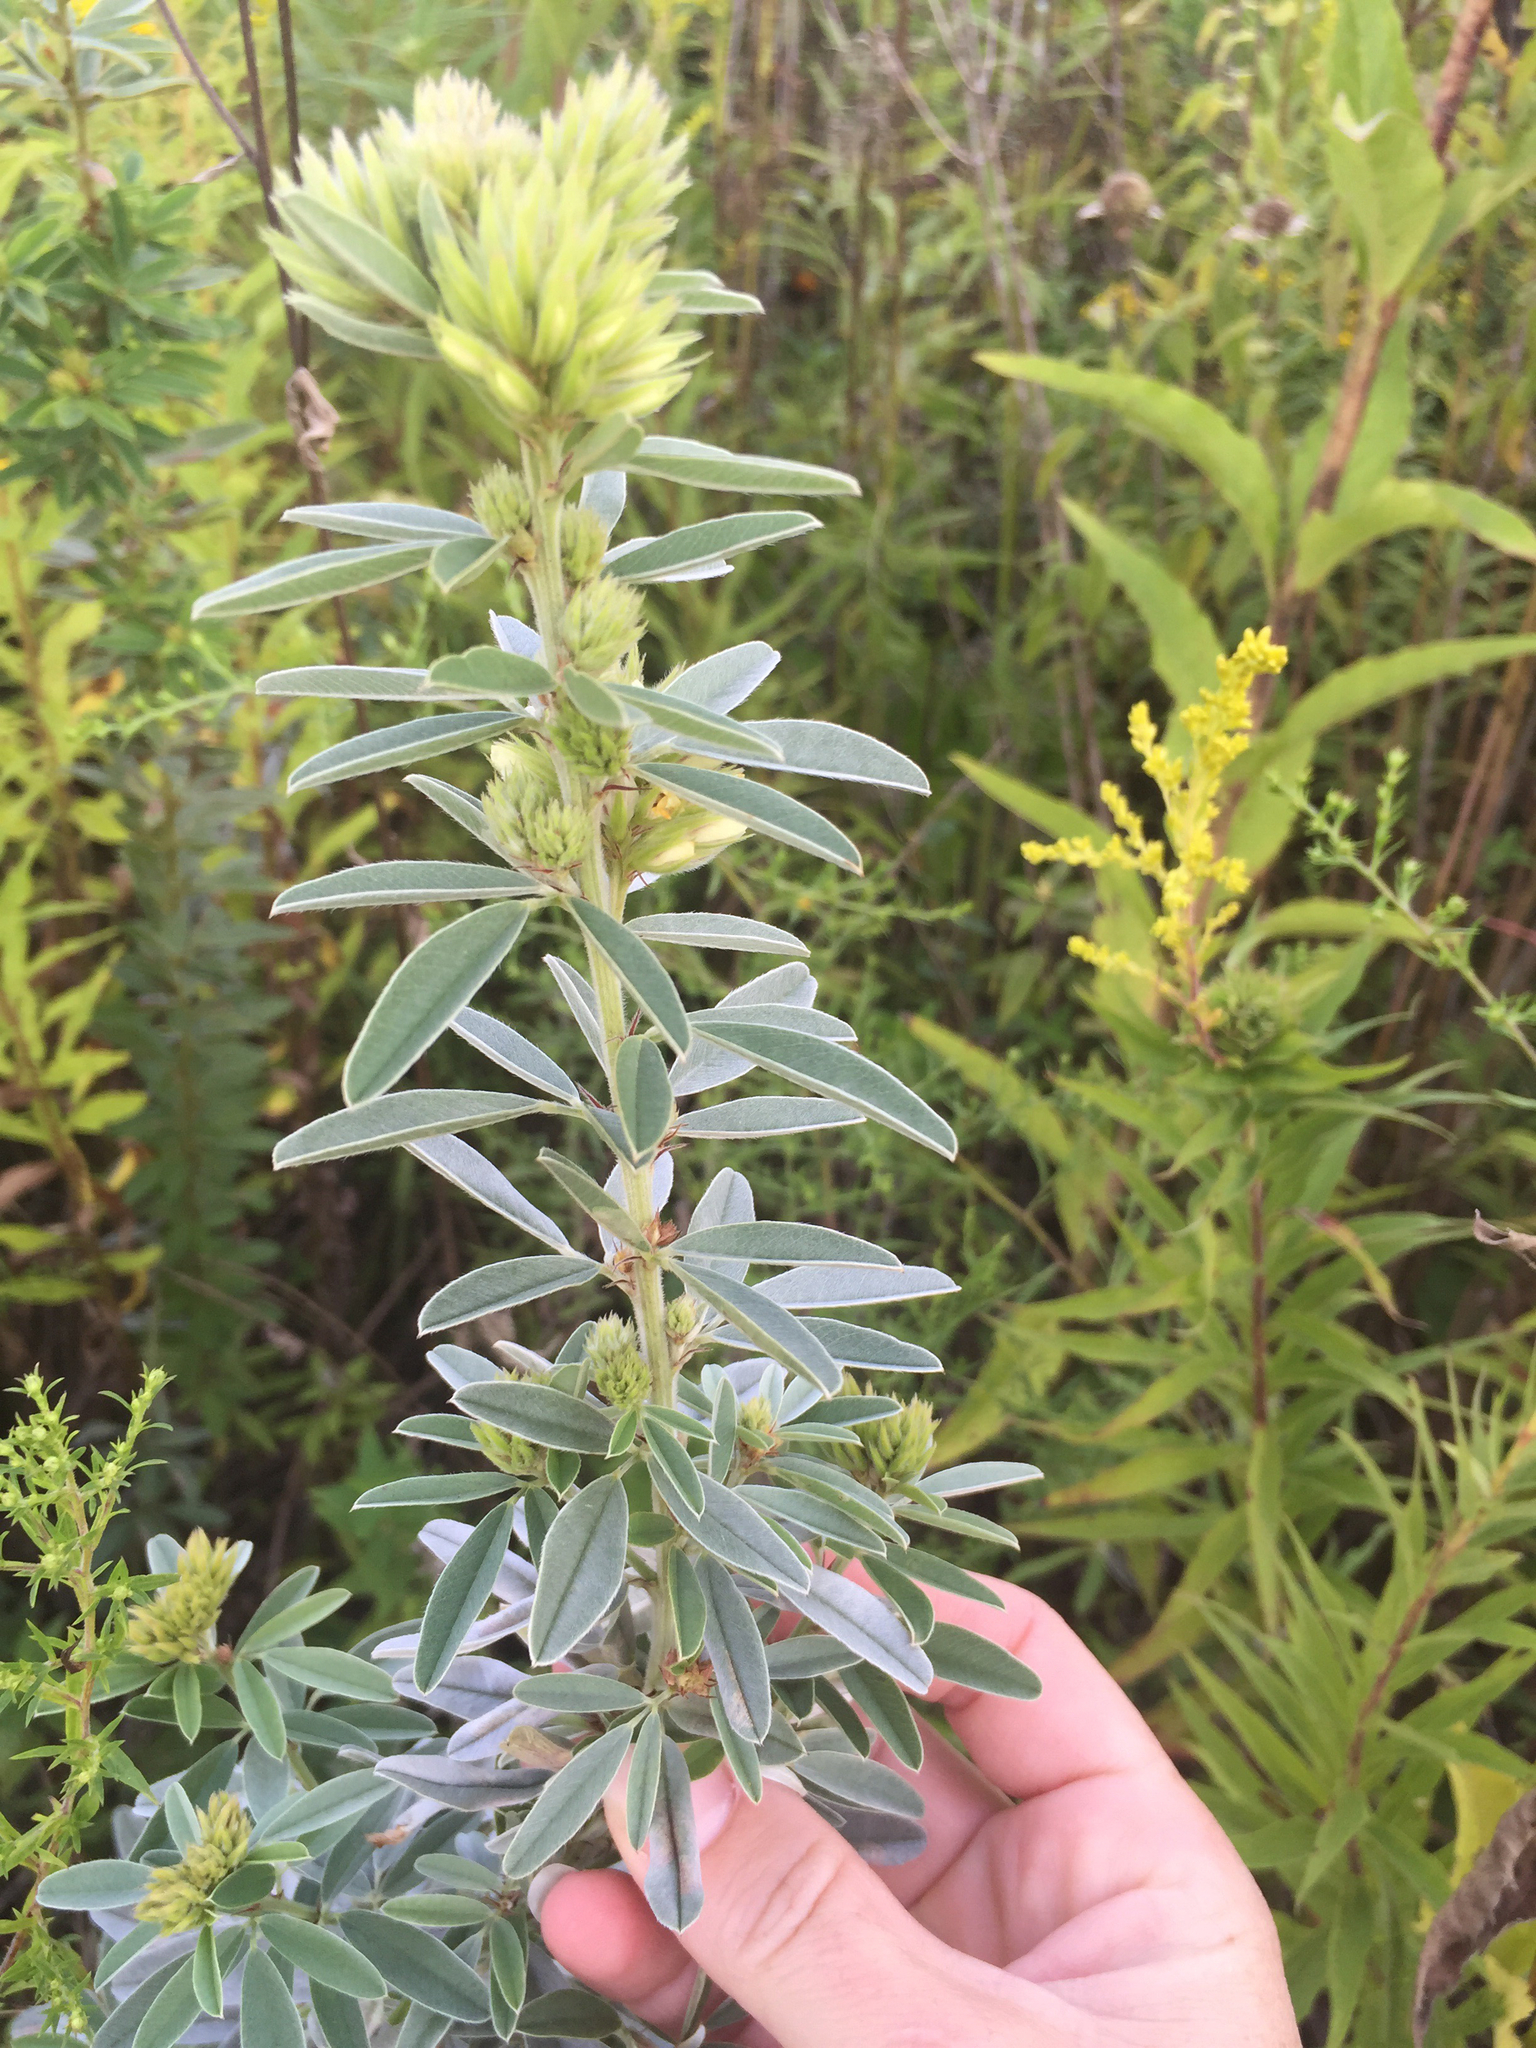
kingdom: Plantae
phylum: Tracheophyta
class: Magnoliopsida
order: Fabales
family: Fabaceae
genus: Lespedeza
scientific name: Lespedeza capitata
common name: Dusty clover
